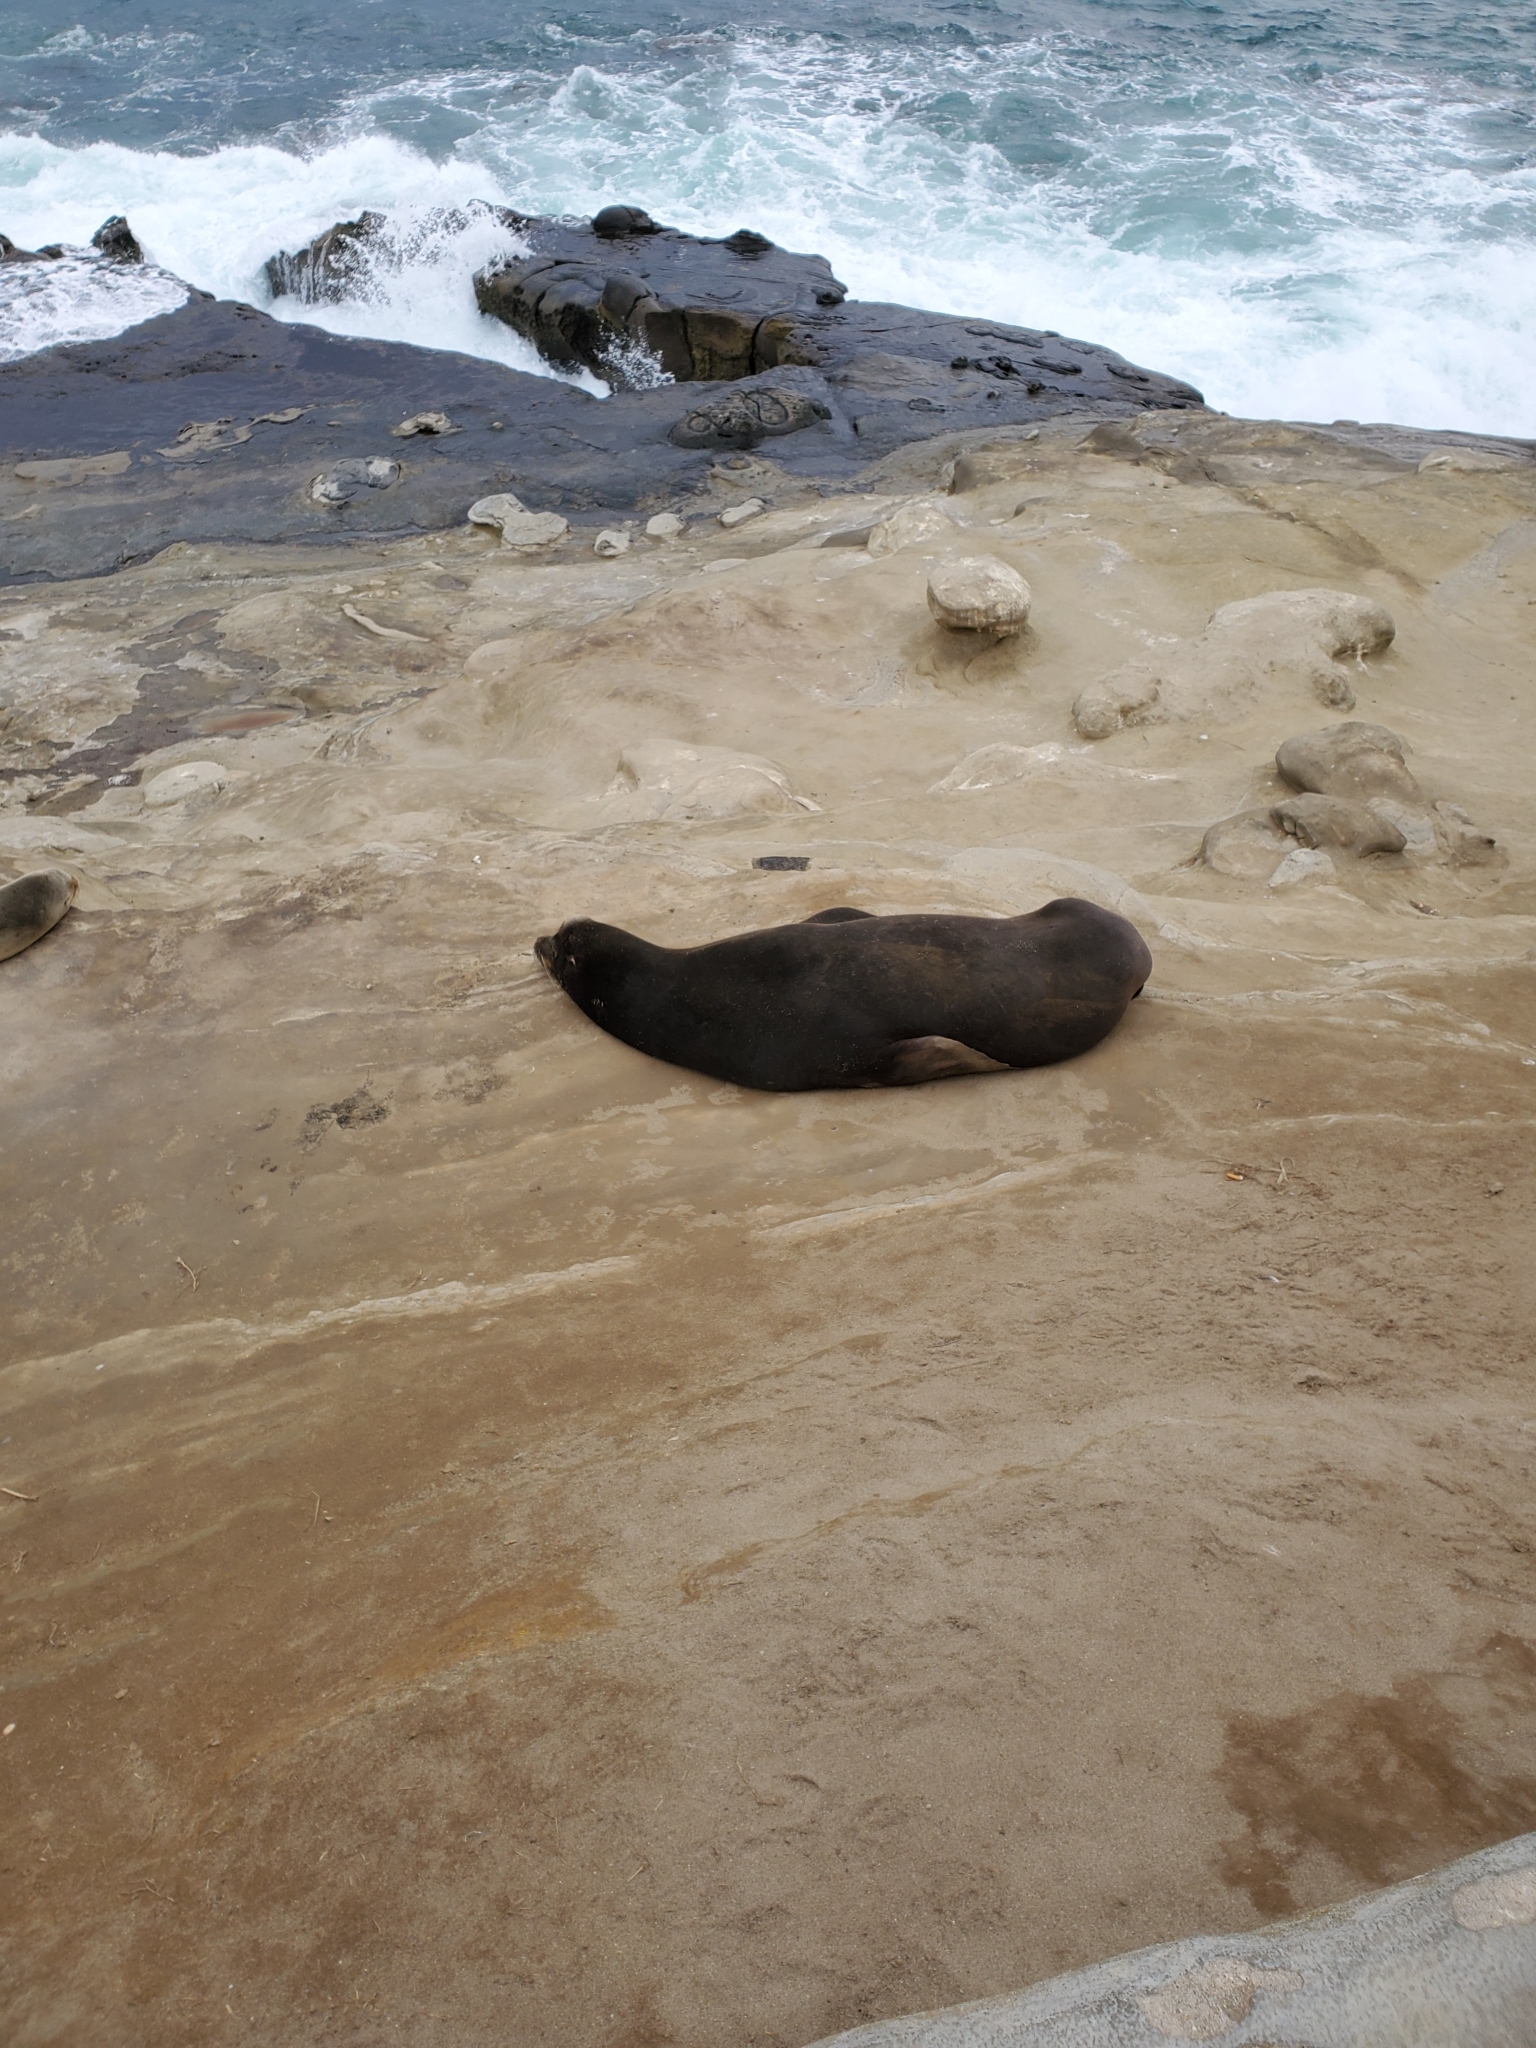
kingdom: Animalia
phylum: Chordata
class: Mammalia
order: Carnivora
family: Otariidae
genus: Zalophus
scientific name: Zalophus californianus
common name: California sea lion
